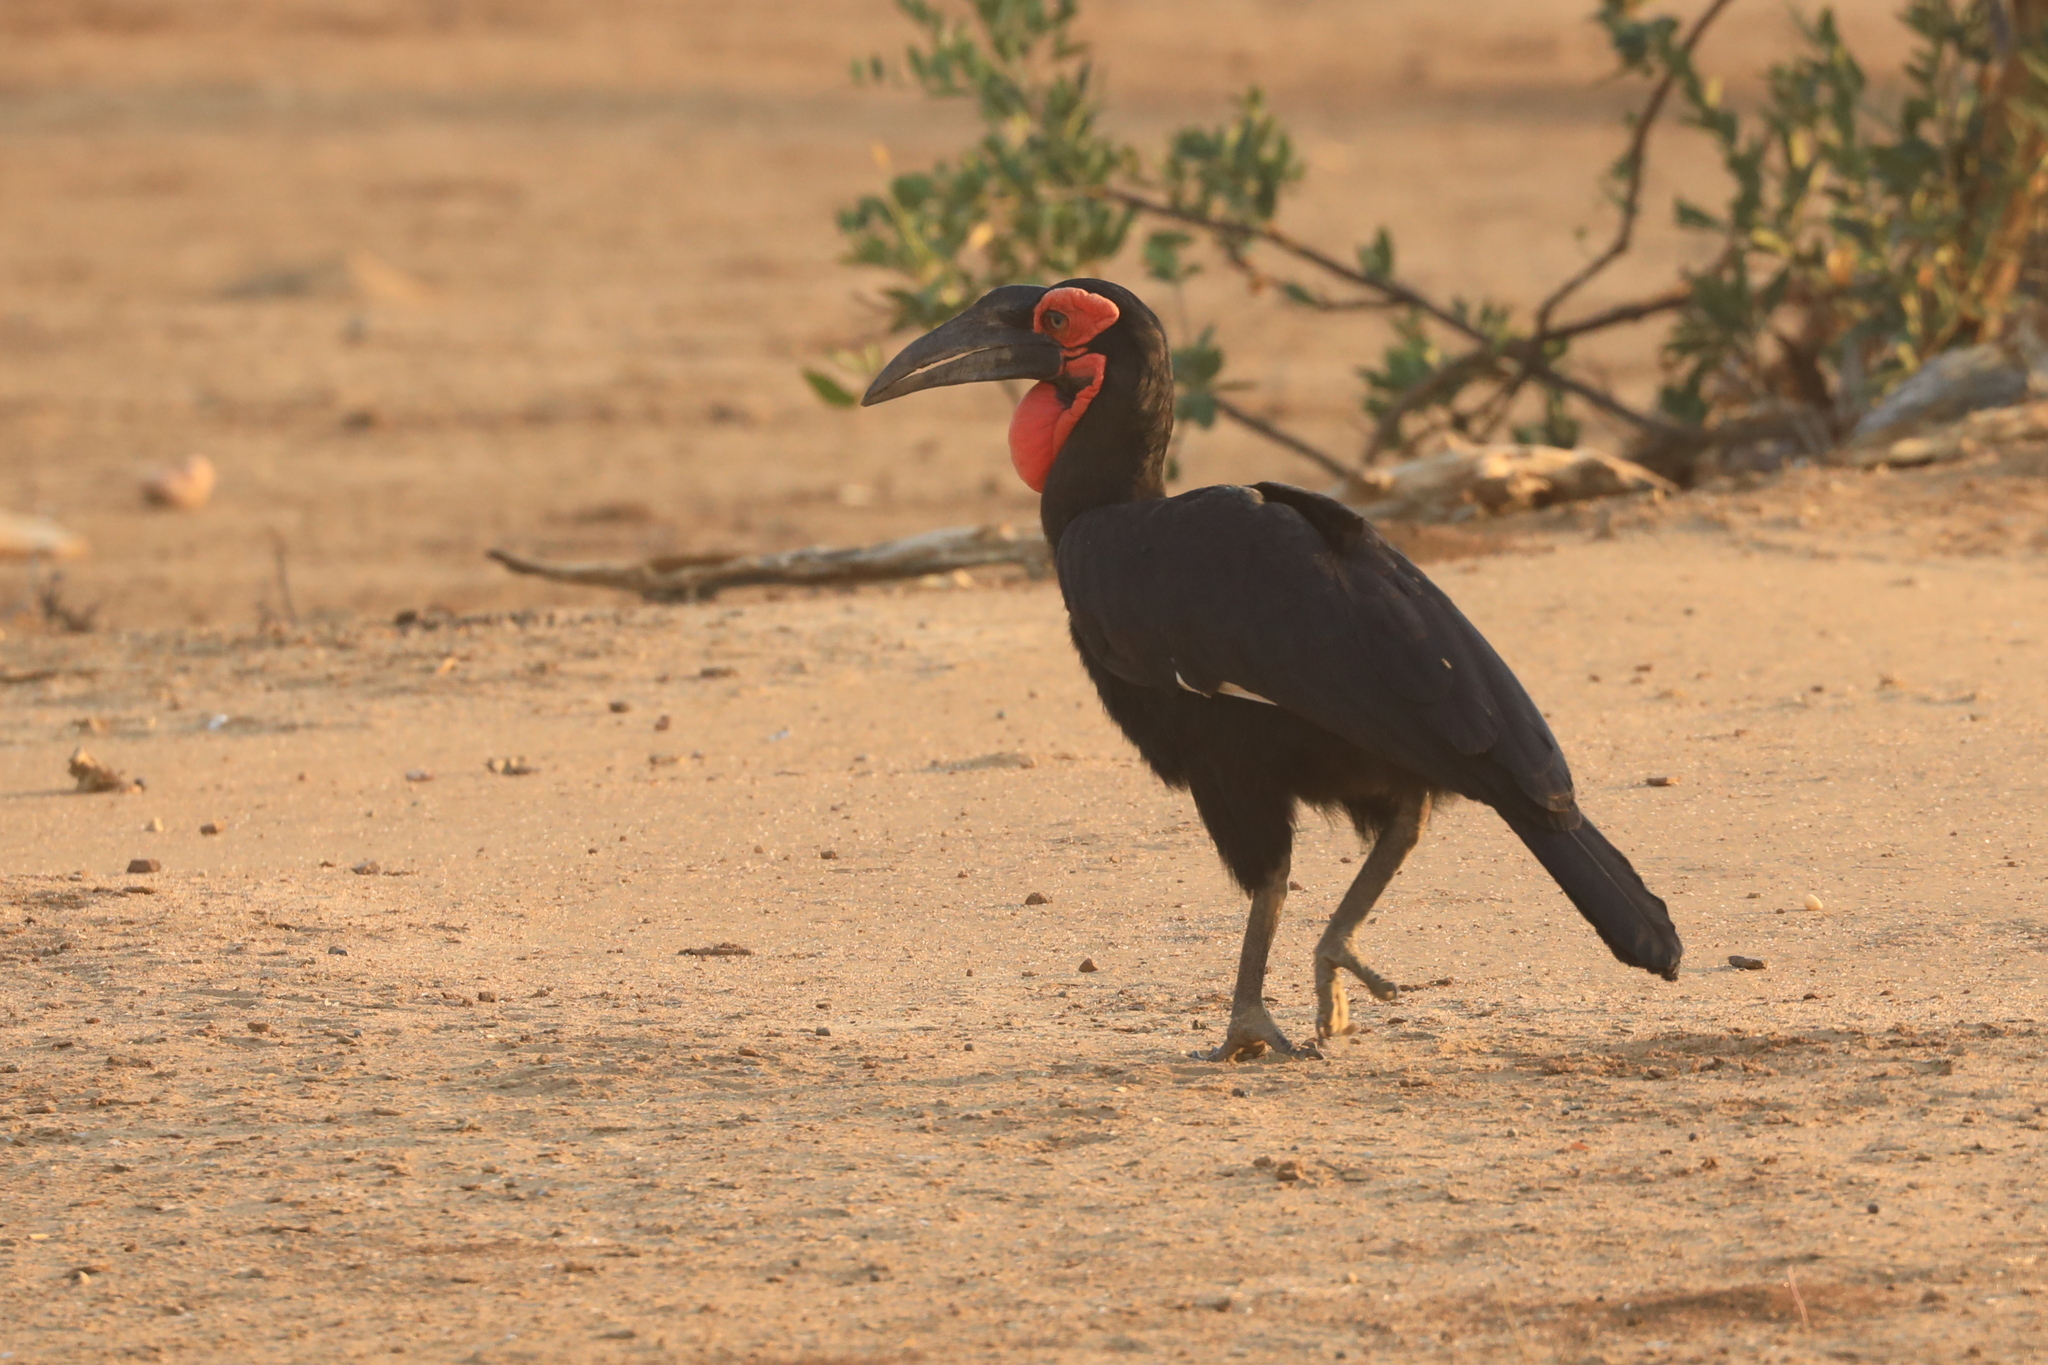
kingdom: Animalia
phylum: Chordata
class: Aves
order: Bucerotiformes
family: Bucorvidae
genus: Bucorvus
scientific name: Bucorvus leadbeateri
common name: Southern ground-hornbill
